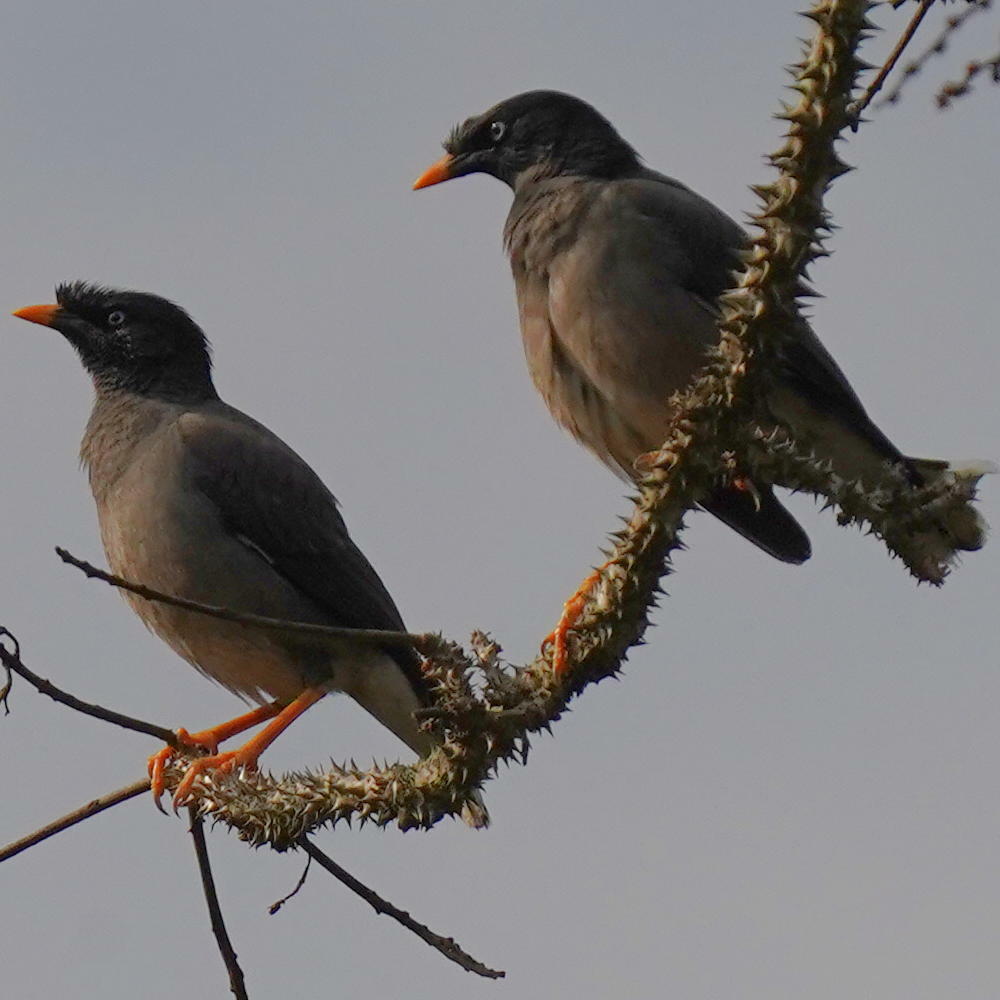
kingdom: Animalia
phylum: Chordata
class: Aves
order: Passeriformes
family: Sturnidae
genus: Acridotheres
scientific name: Acridotheres fuscus
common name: Jungle myna
